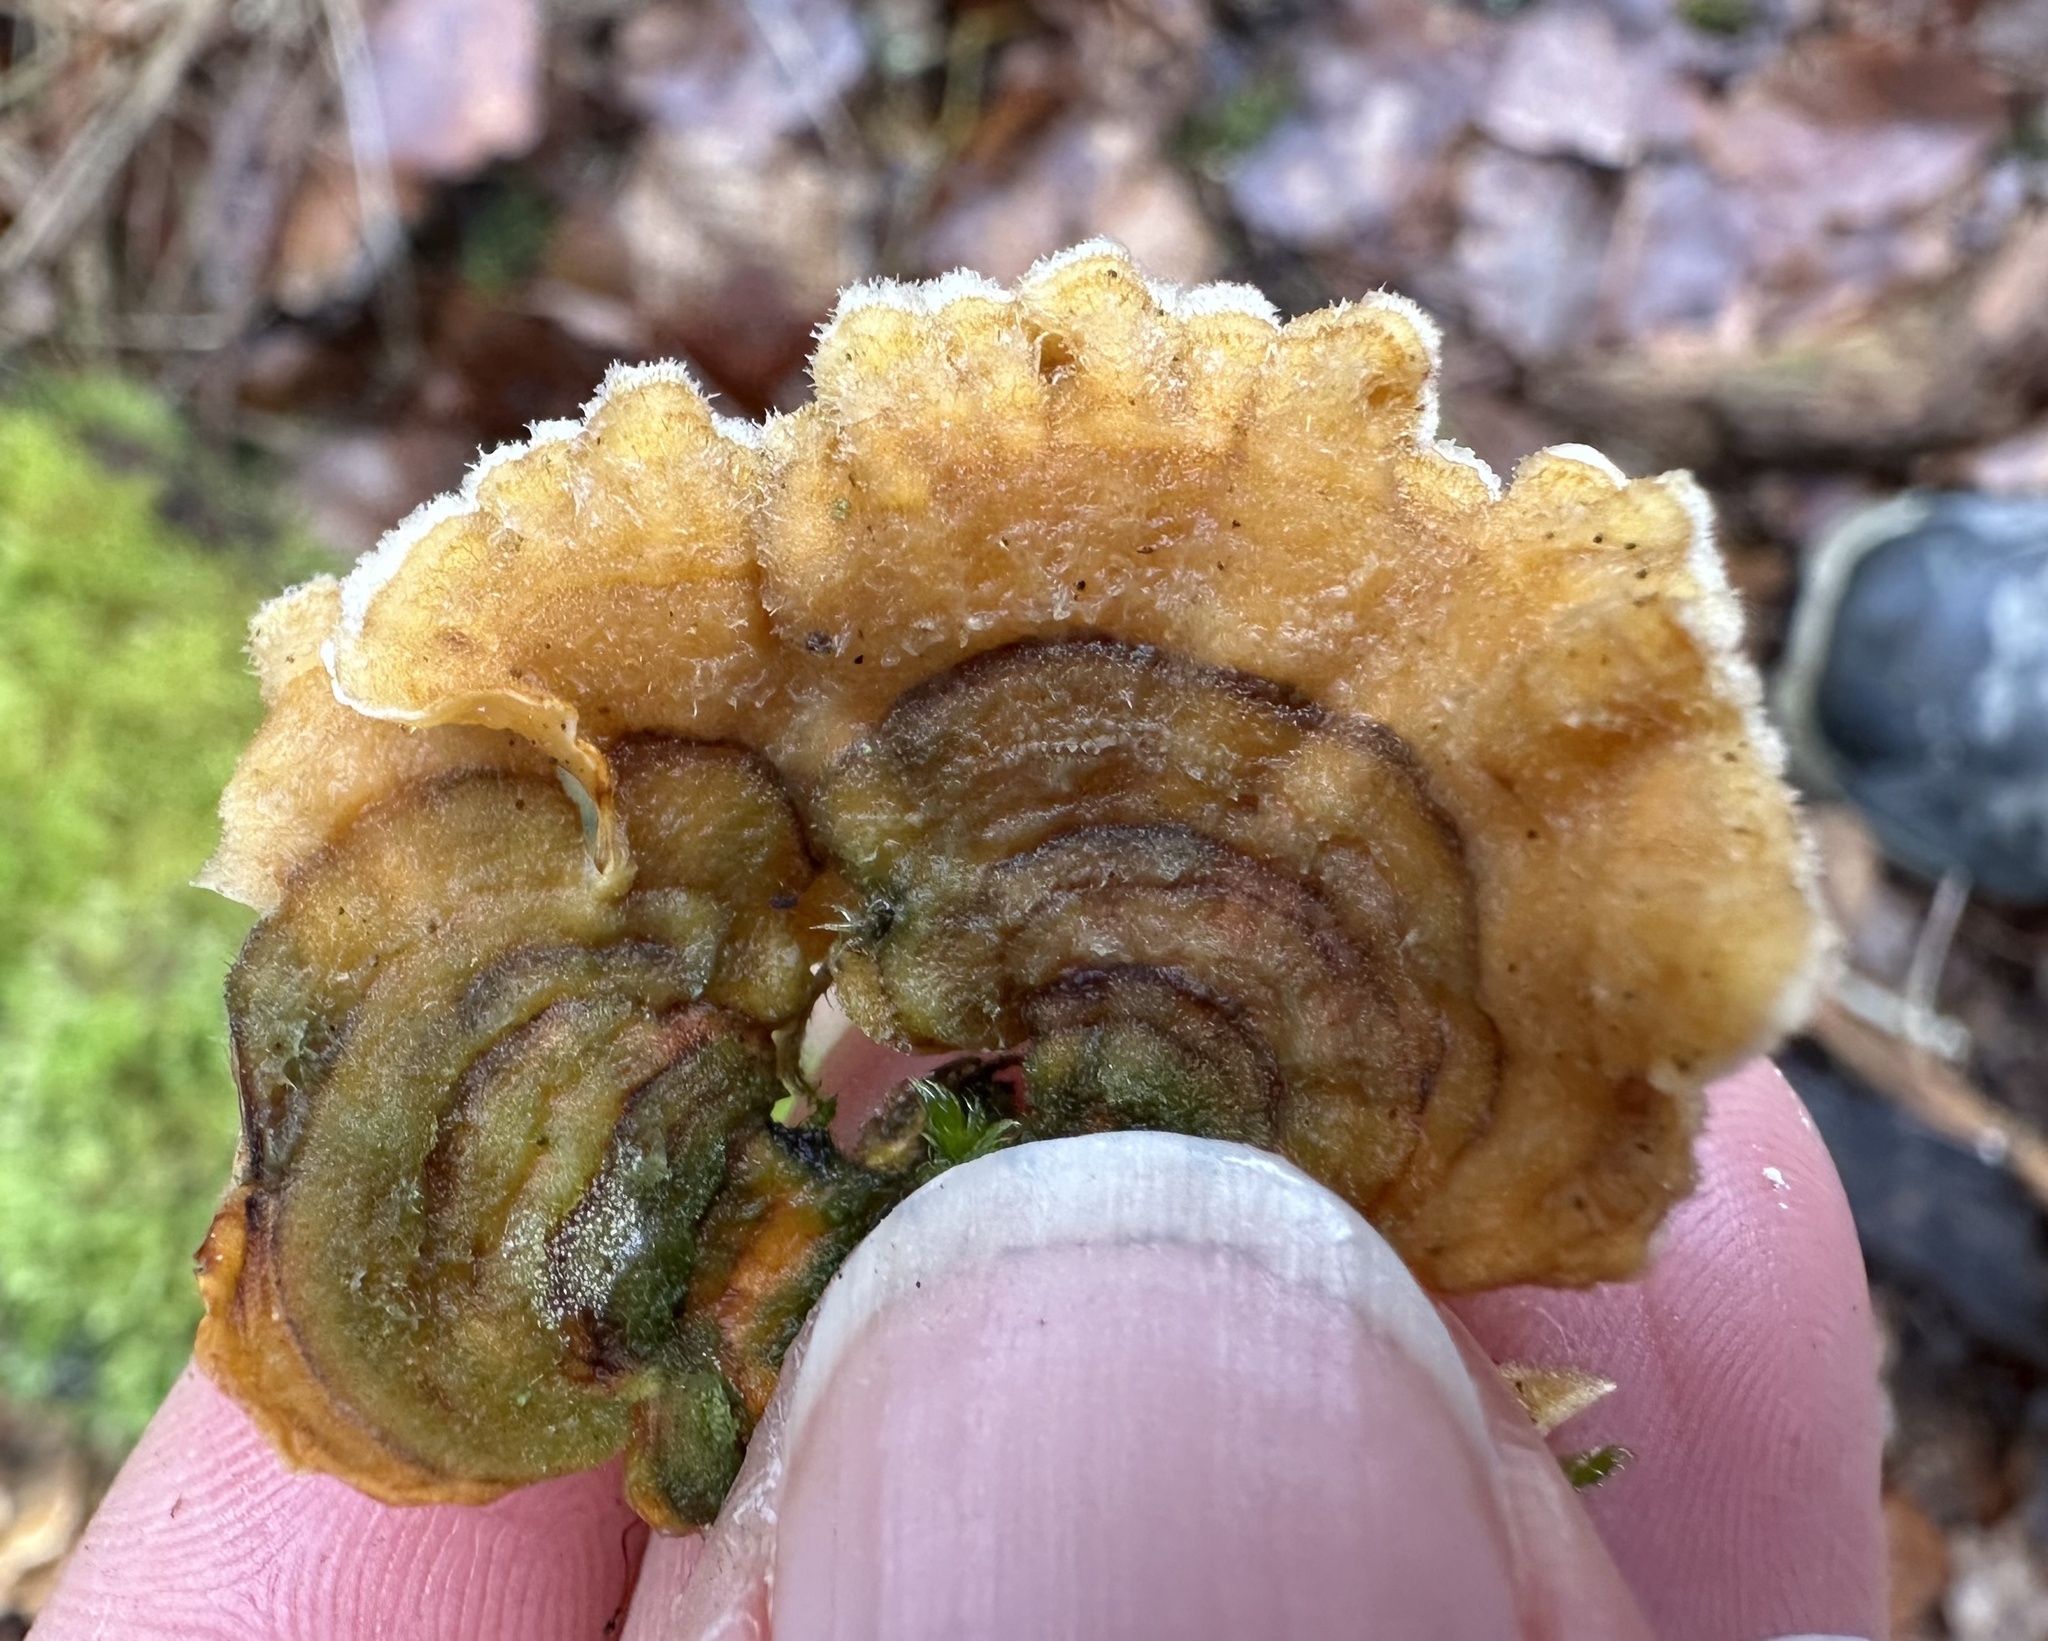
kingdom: Fungi
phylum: Basidiomycota
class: Agaricomycetes
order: Russulales
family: Stereaceae
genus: Stereum
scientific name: Stereum hirsutum
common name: Hairy curtain crust
